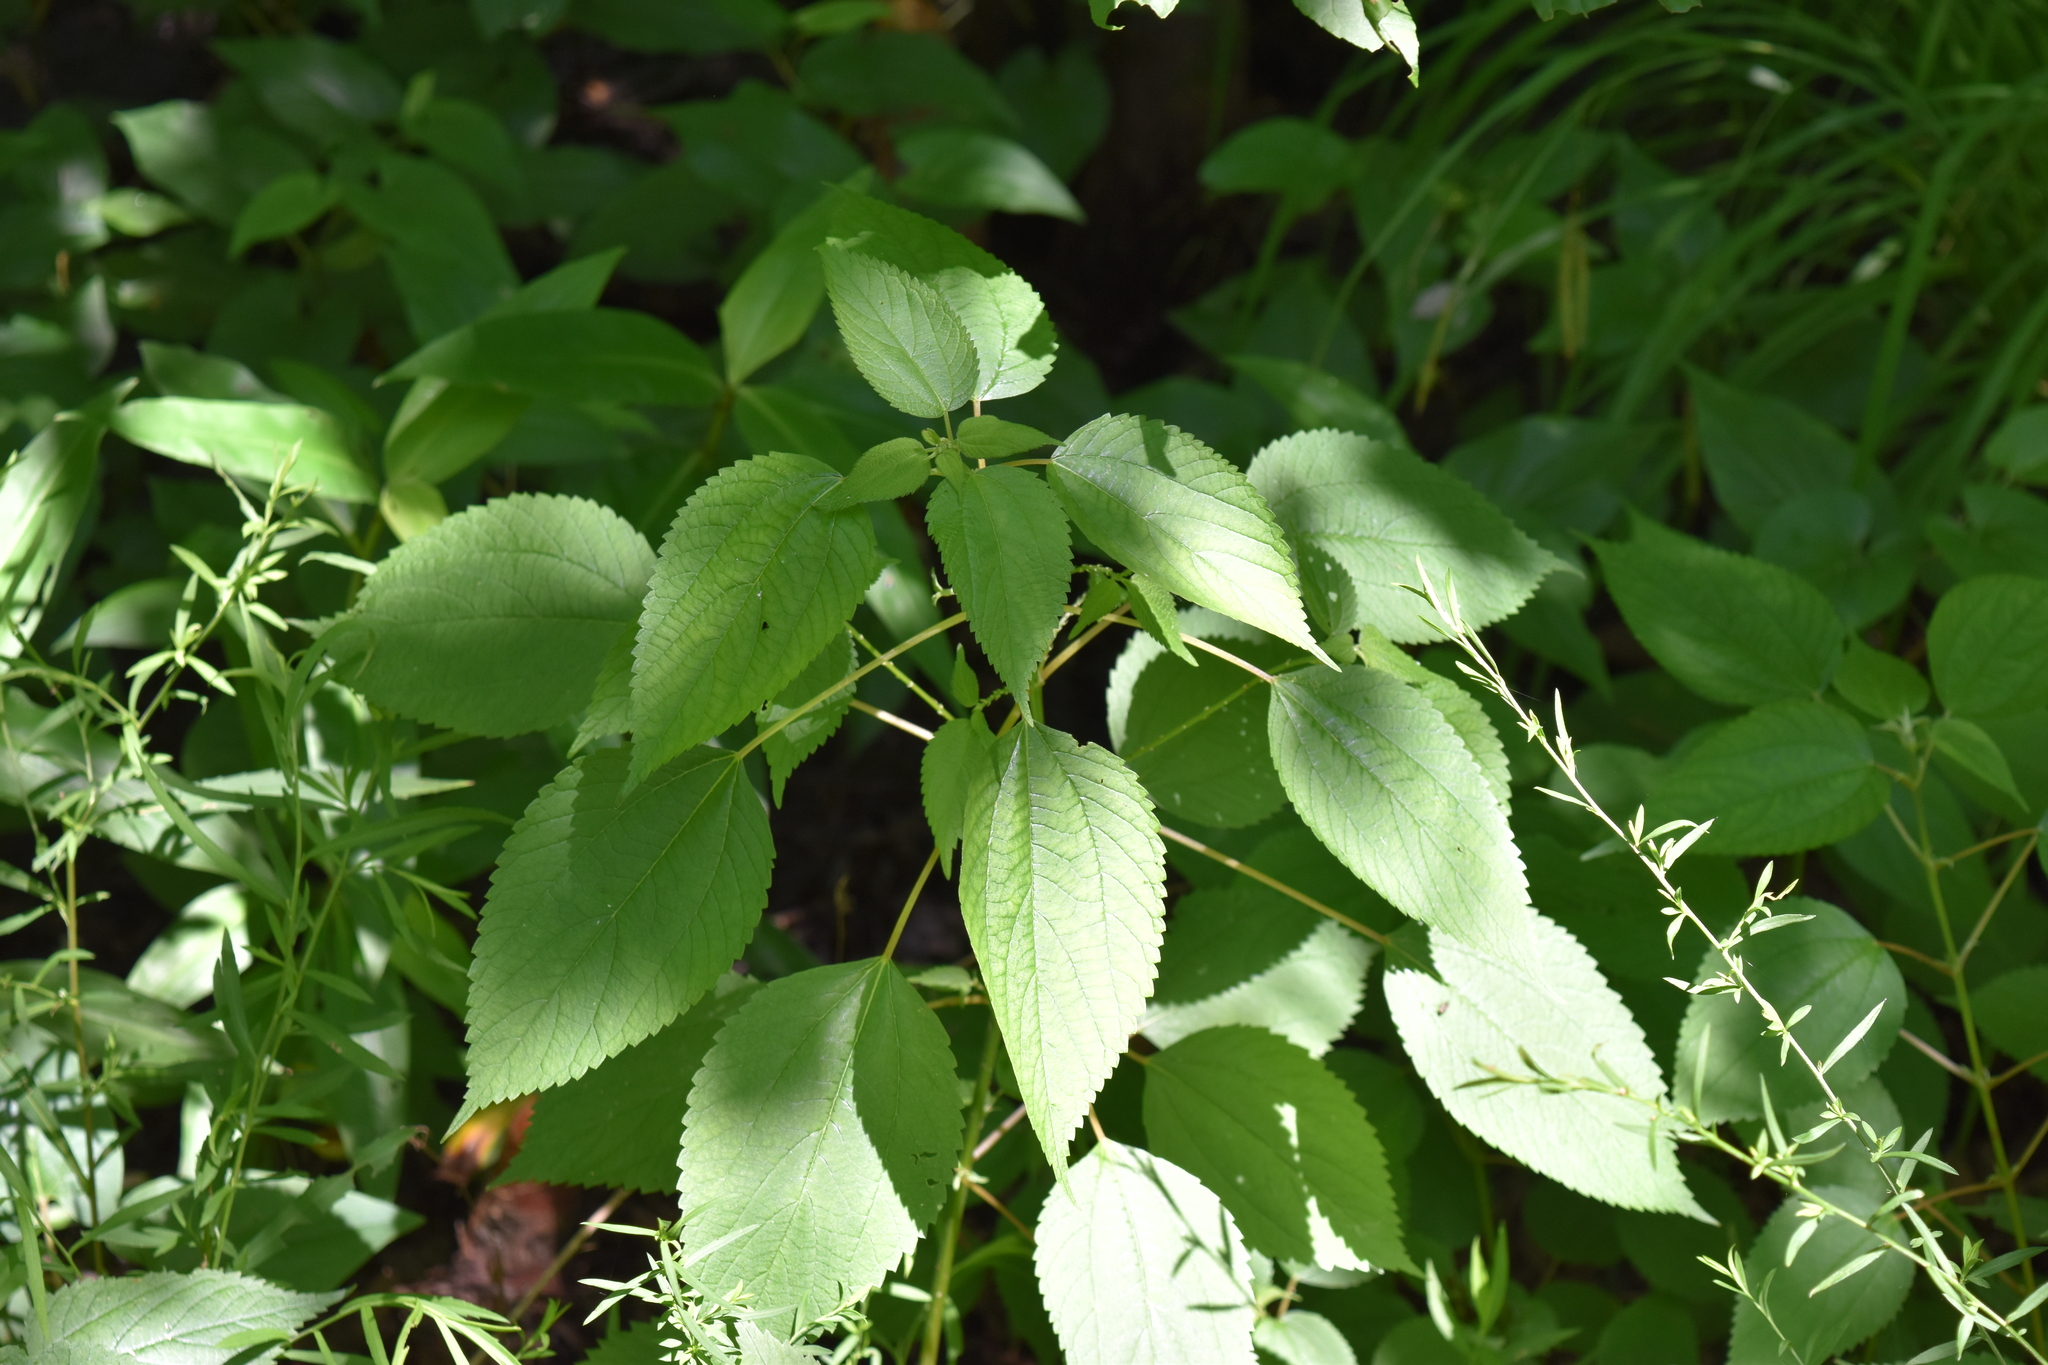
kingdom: Plantae
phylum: Tracheophyta
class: Magnoliopsida
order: Rosales
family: Urticaceae
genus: Boehmeria
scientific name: Boehmeria cylindrica
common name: Bog-hemp
